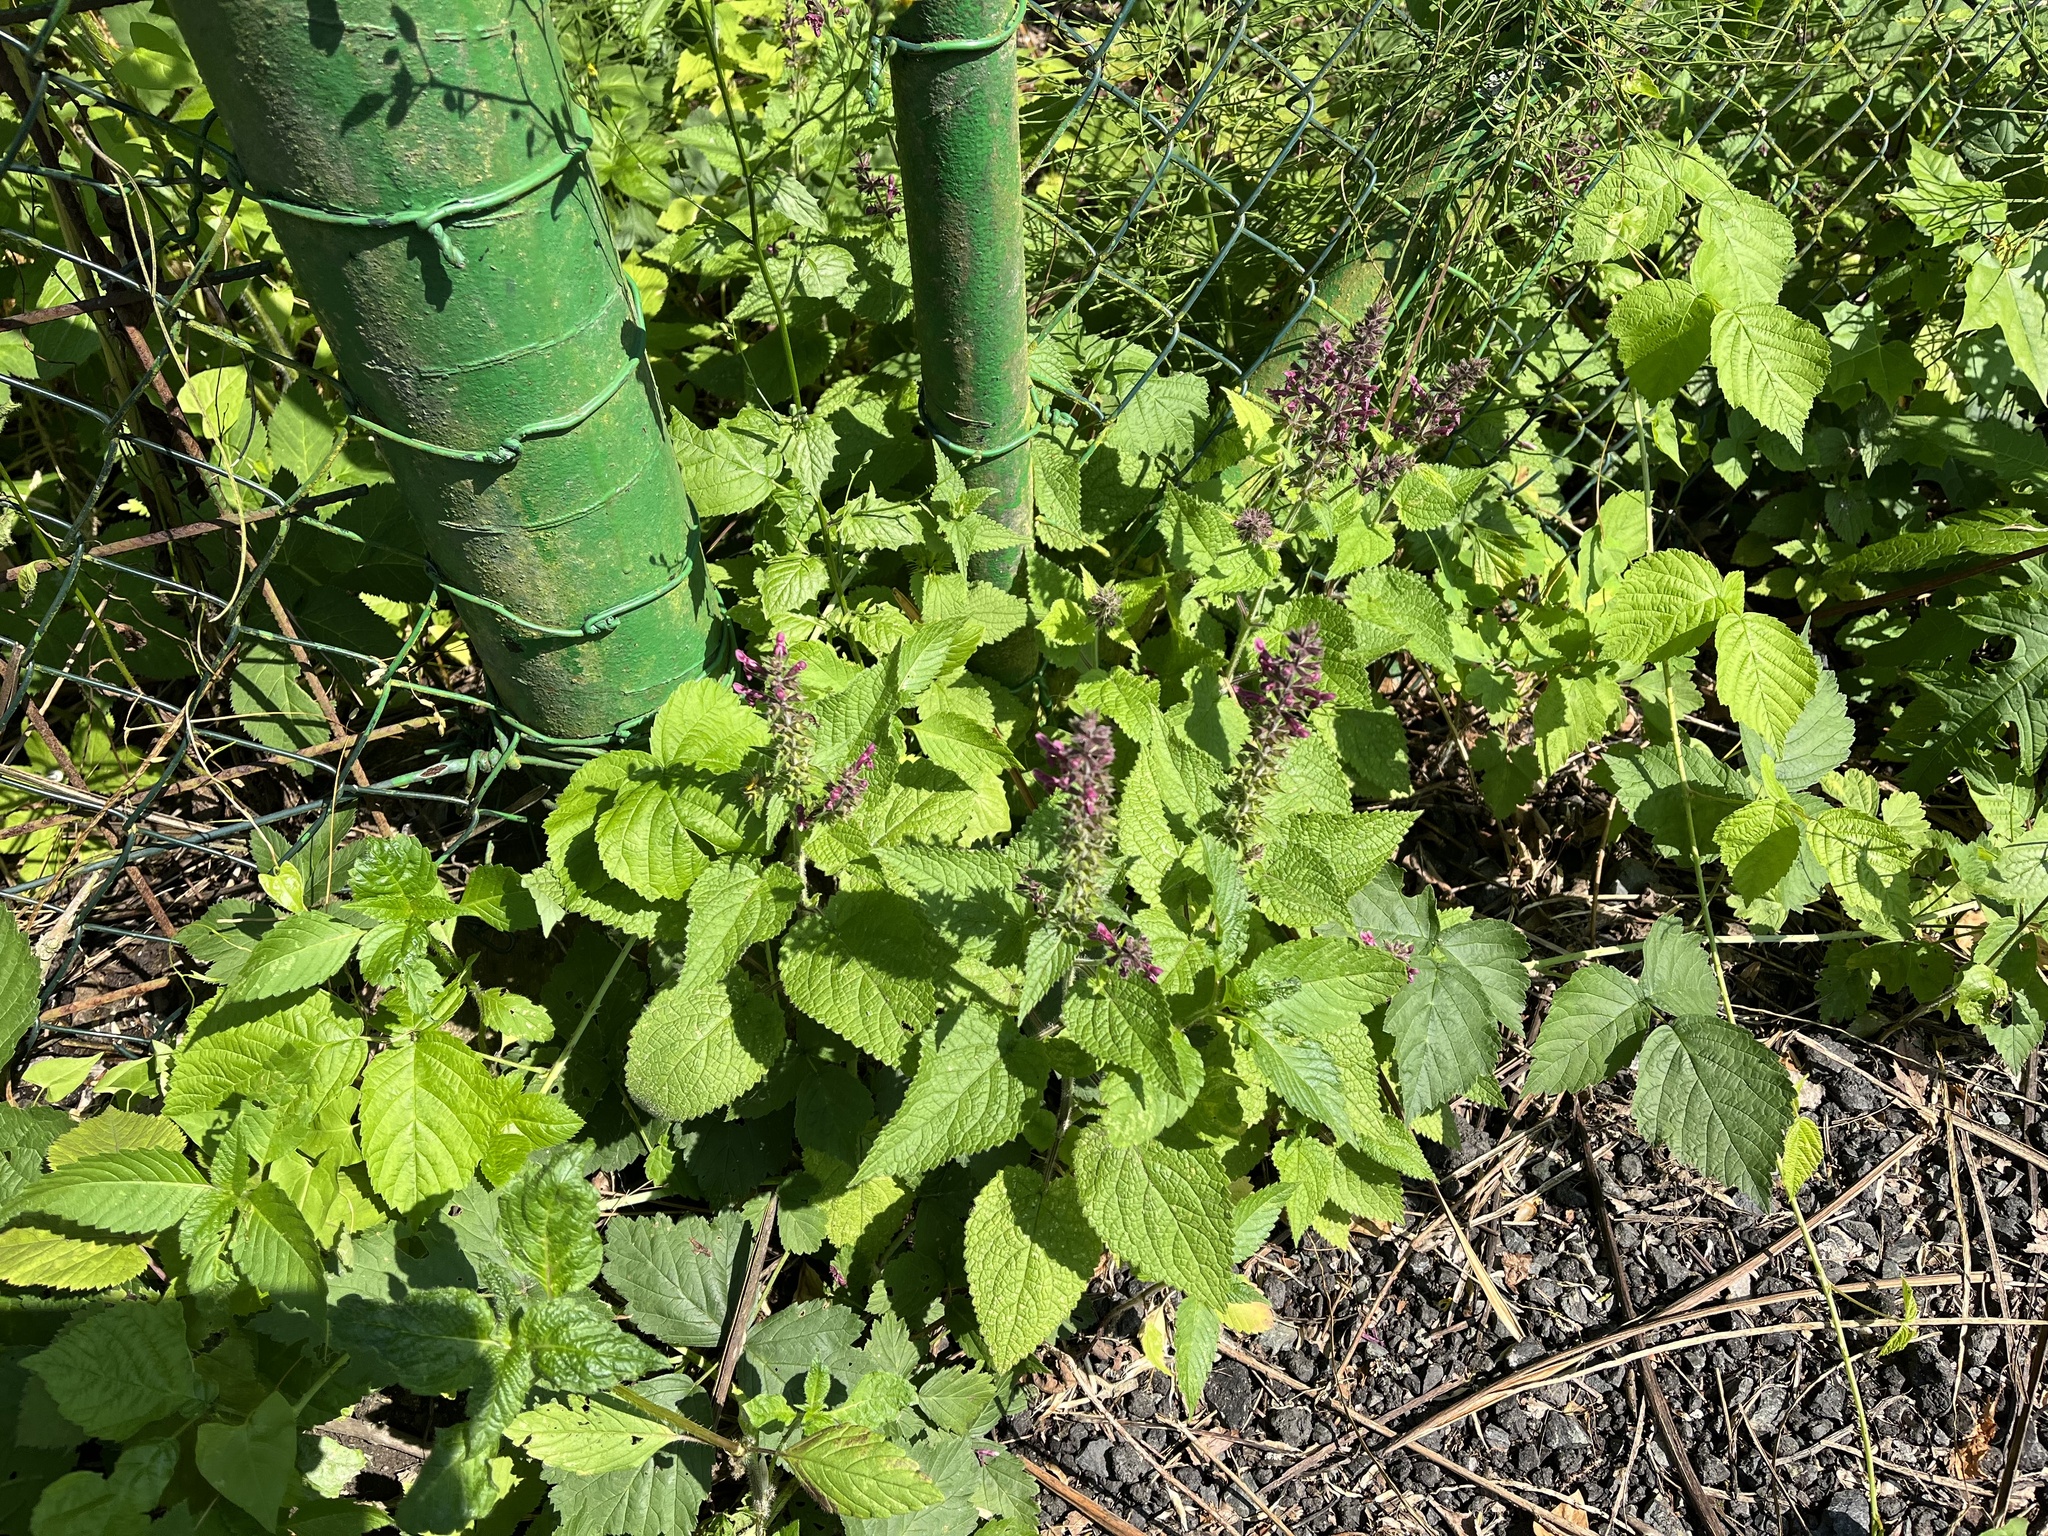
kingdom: Plantae
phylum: Tracheophyta
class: Magnoliopsida
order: Lamiales
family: Lamiaceae
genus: Stachys
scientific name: Stachys sylvatica
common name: Hedge woundwort
